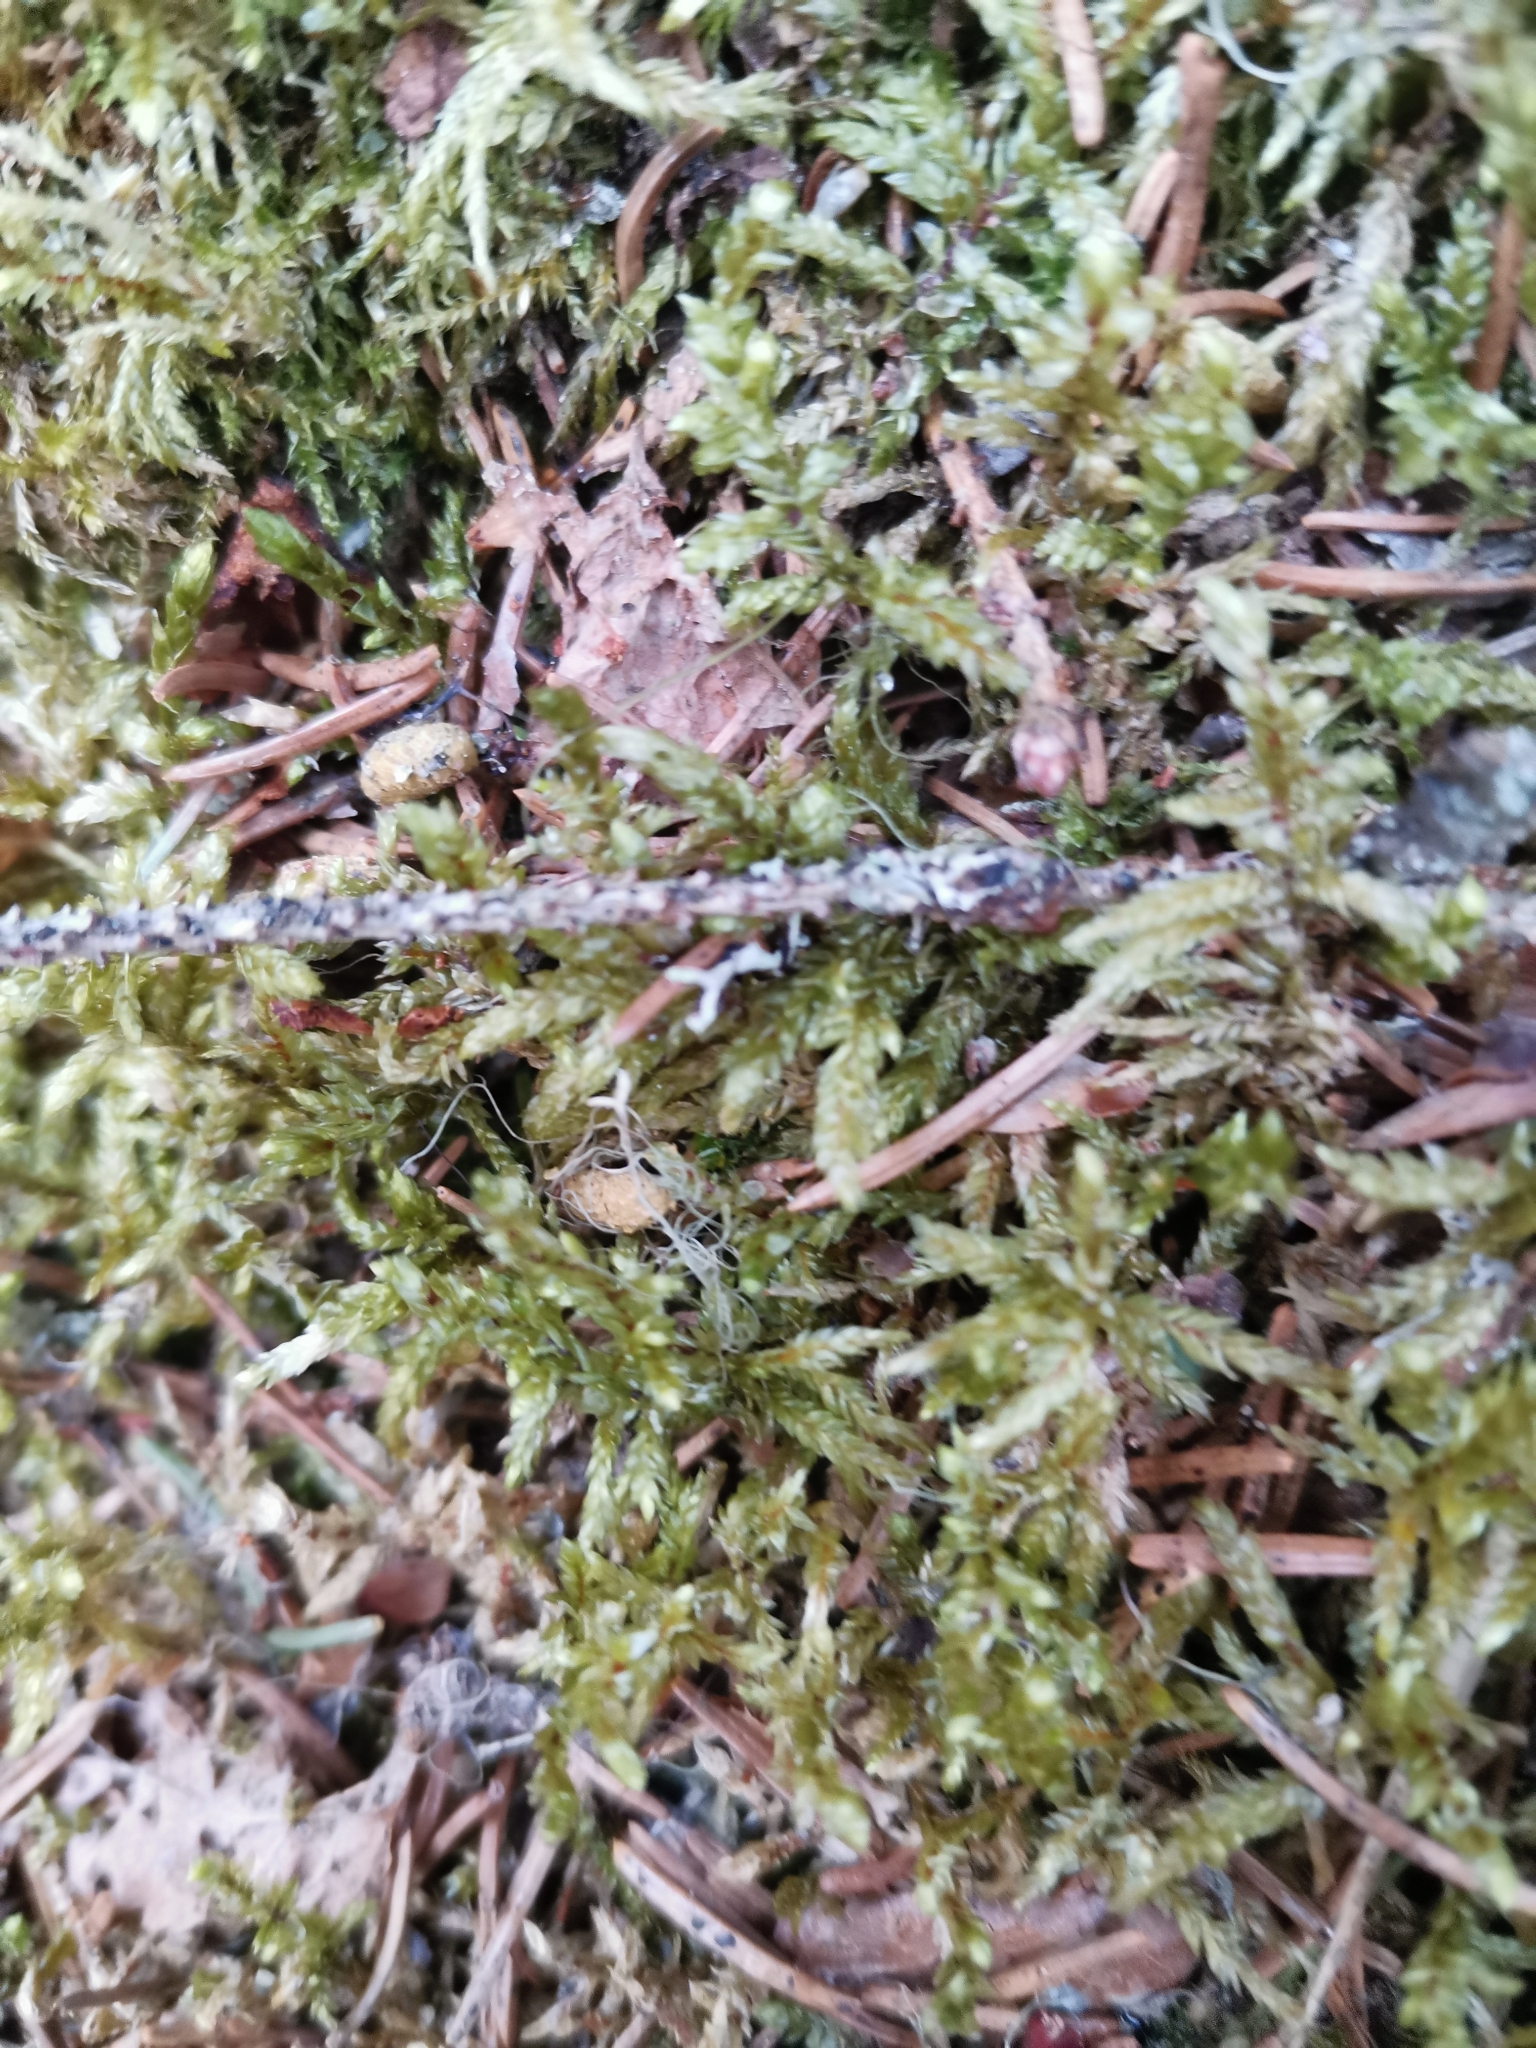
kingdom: Animalia
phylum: Chordata
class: Mammalia
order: Rodentia
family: Sciuridae
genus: Pteromys
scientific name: Pteromys volans
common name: Siberian flying squirrel
